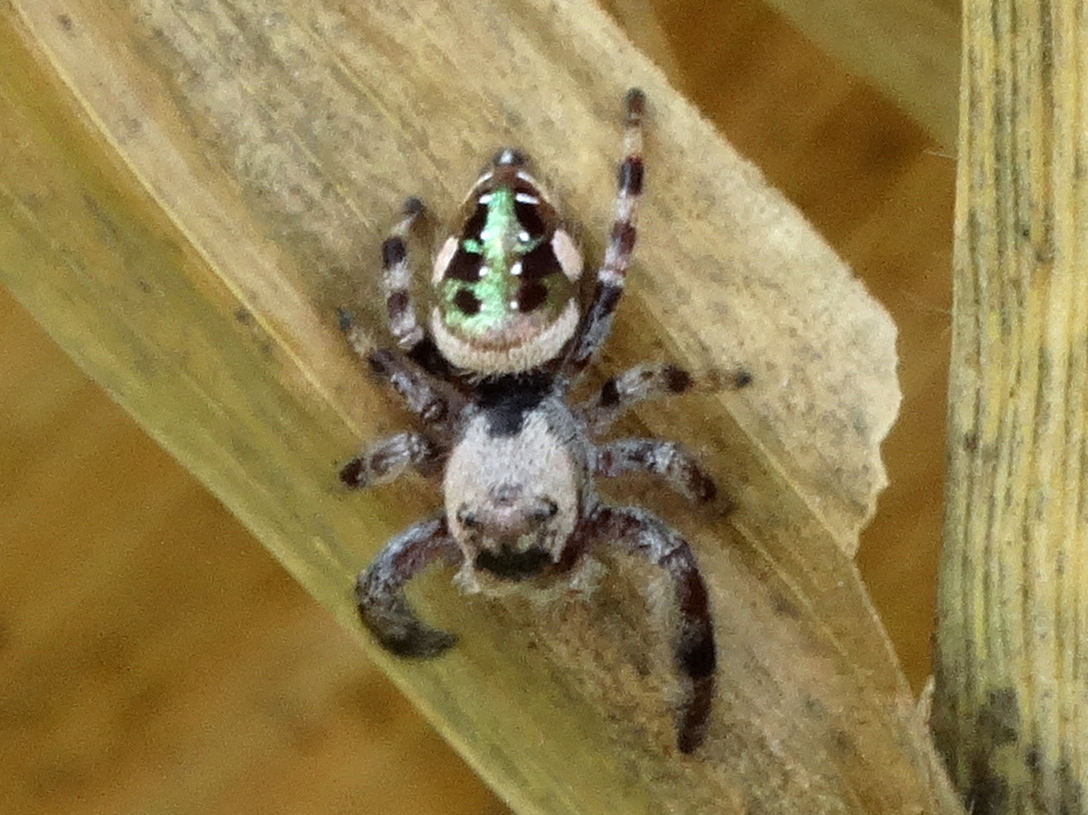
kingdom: Animalia
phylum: Arthropoda
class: Arachnida
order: Araneae
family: Salticidae
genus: Paraphidippus
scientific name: Paraphidippus aurantius
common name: Jumping spiders
